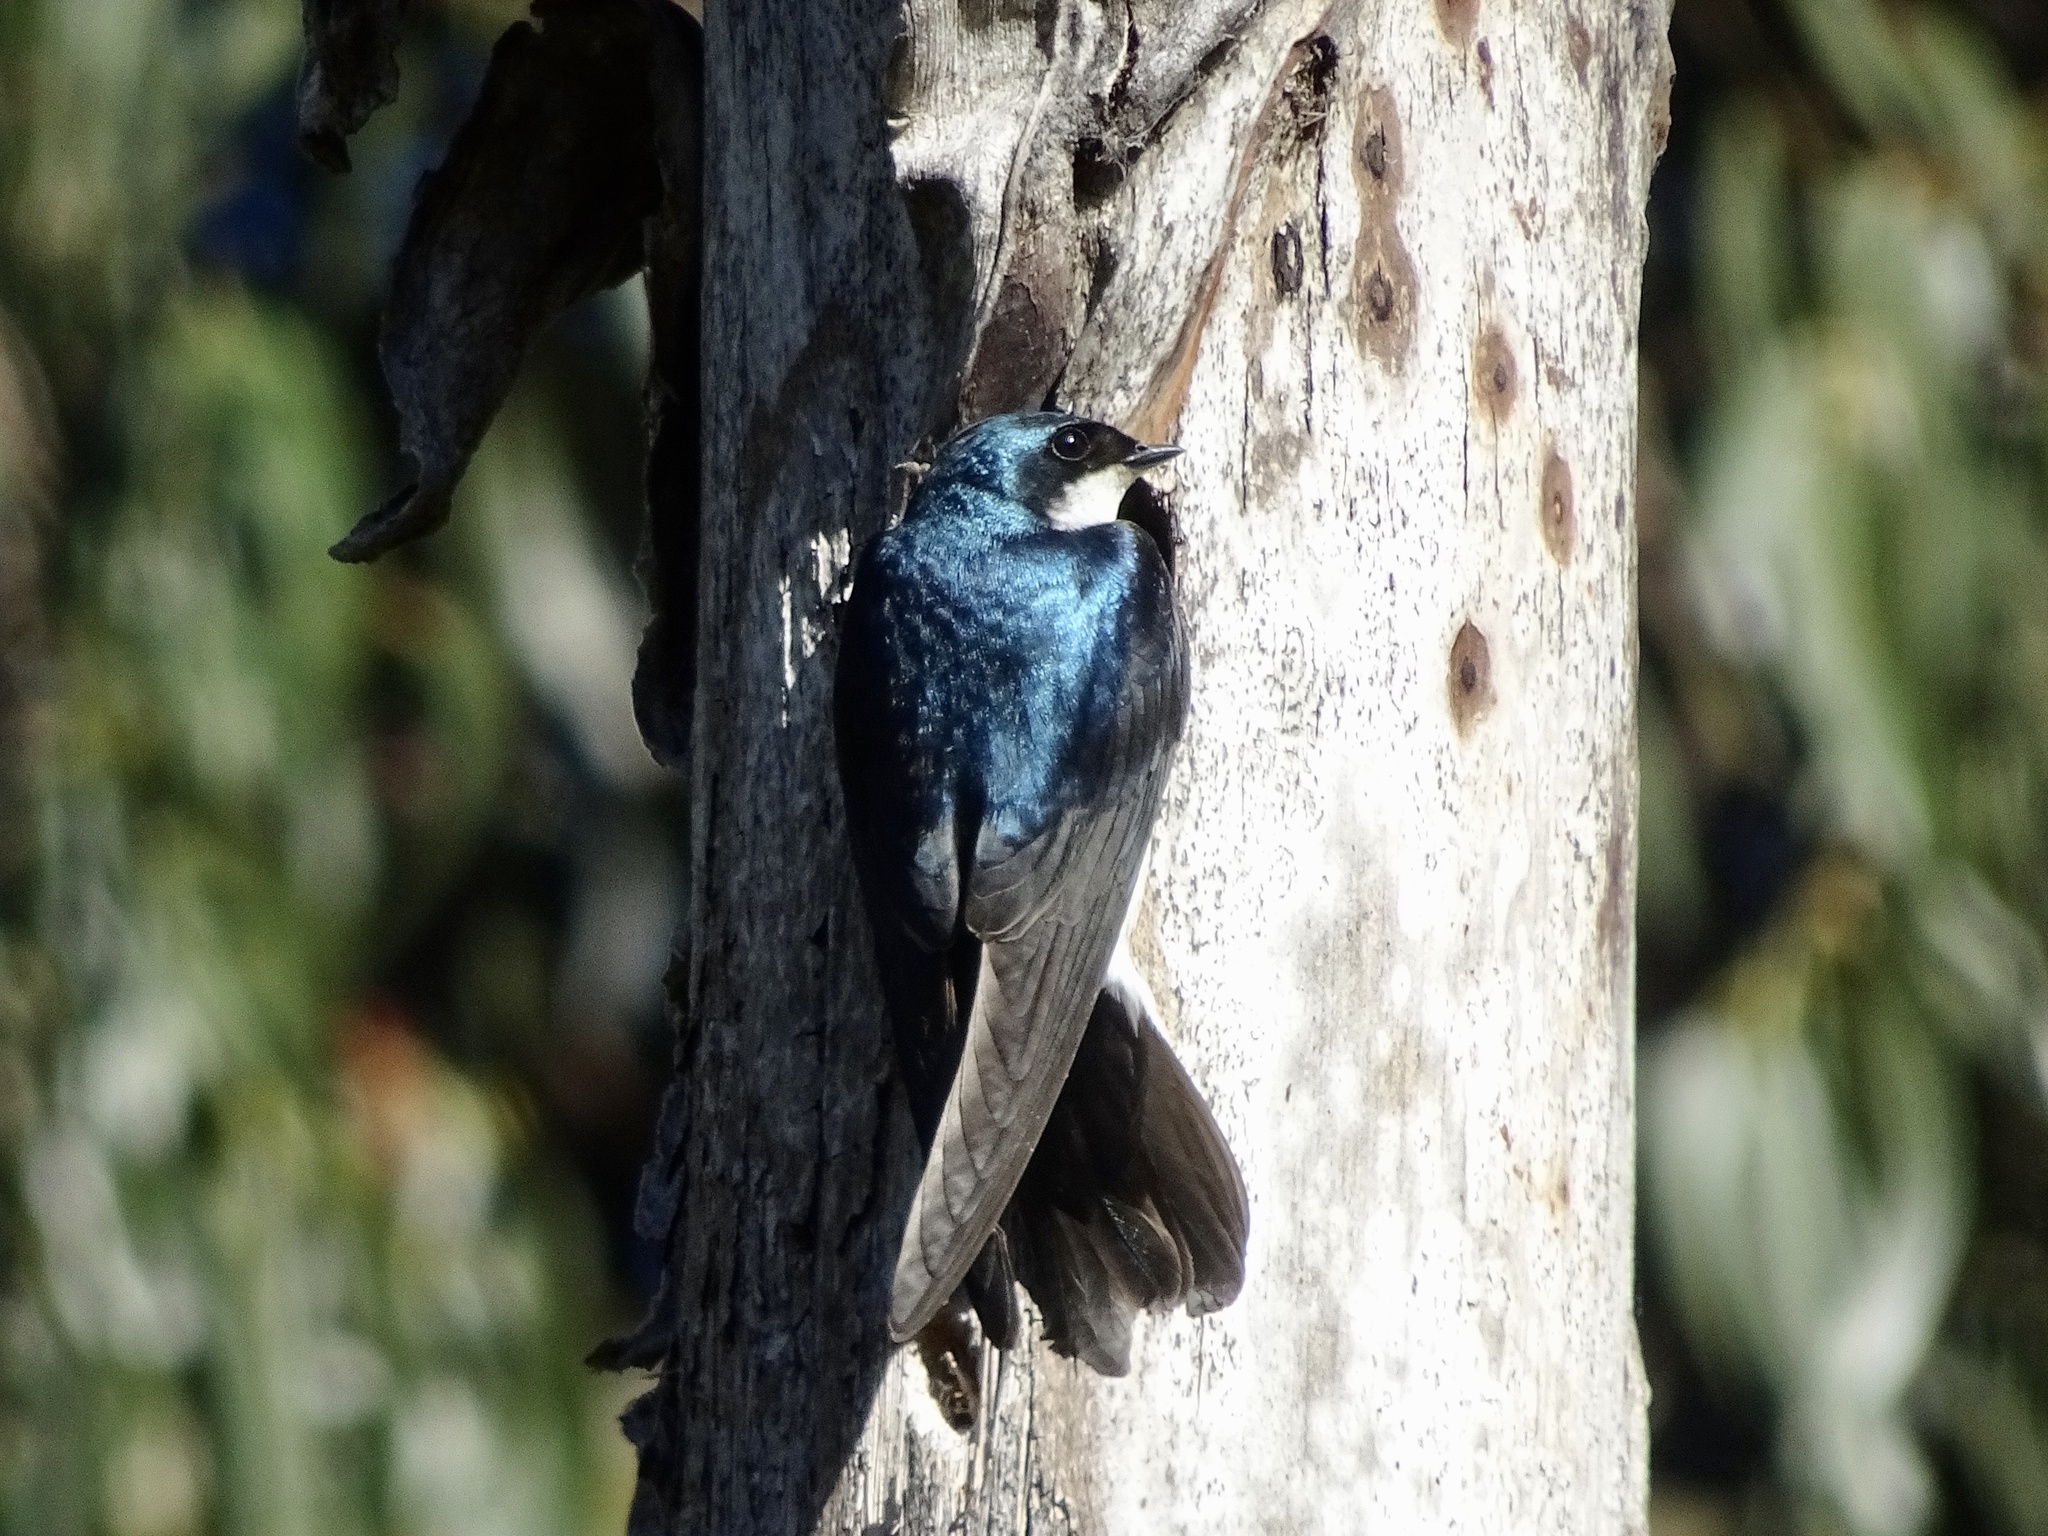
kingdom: Animalia
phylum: Chordata
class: Aves
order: Passeriformes
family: Hirundinidae
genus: Tachycineta
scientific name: Tachycineta bicolor
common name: Tree swallow
